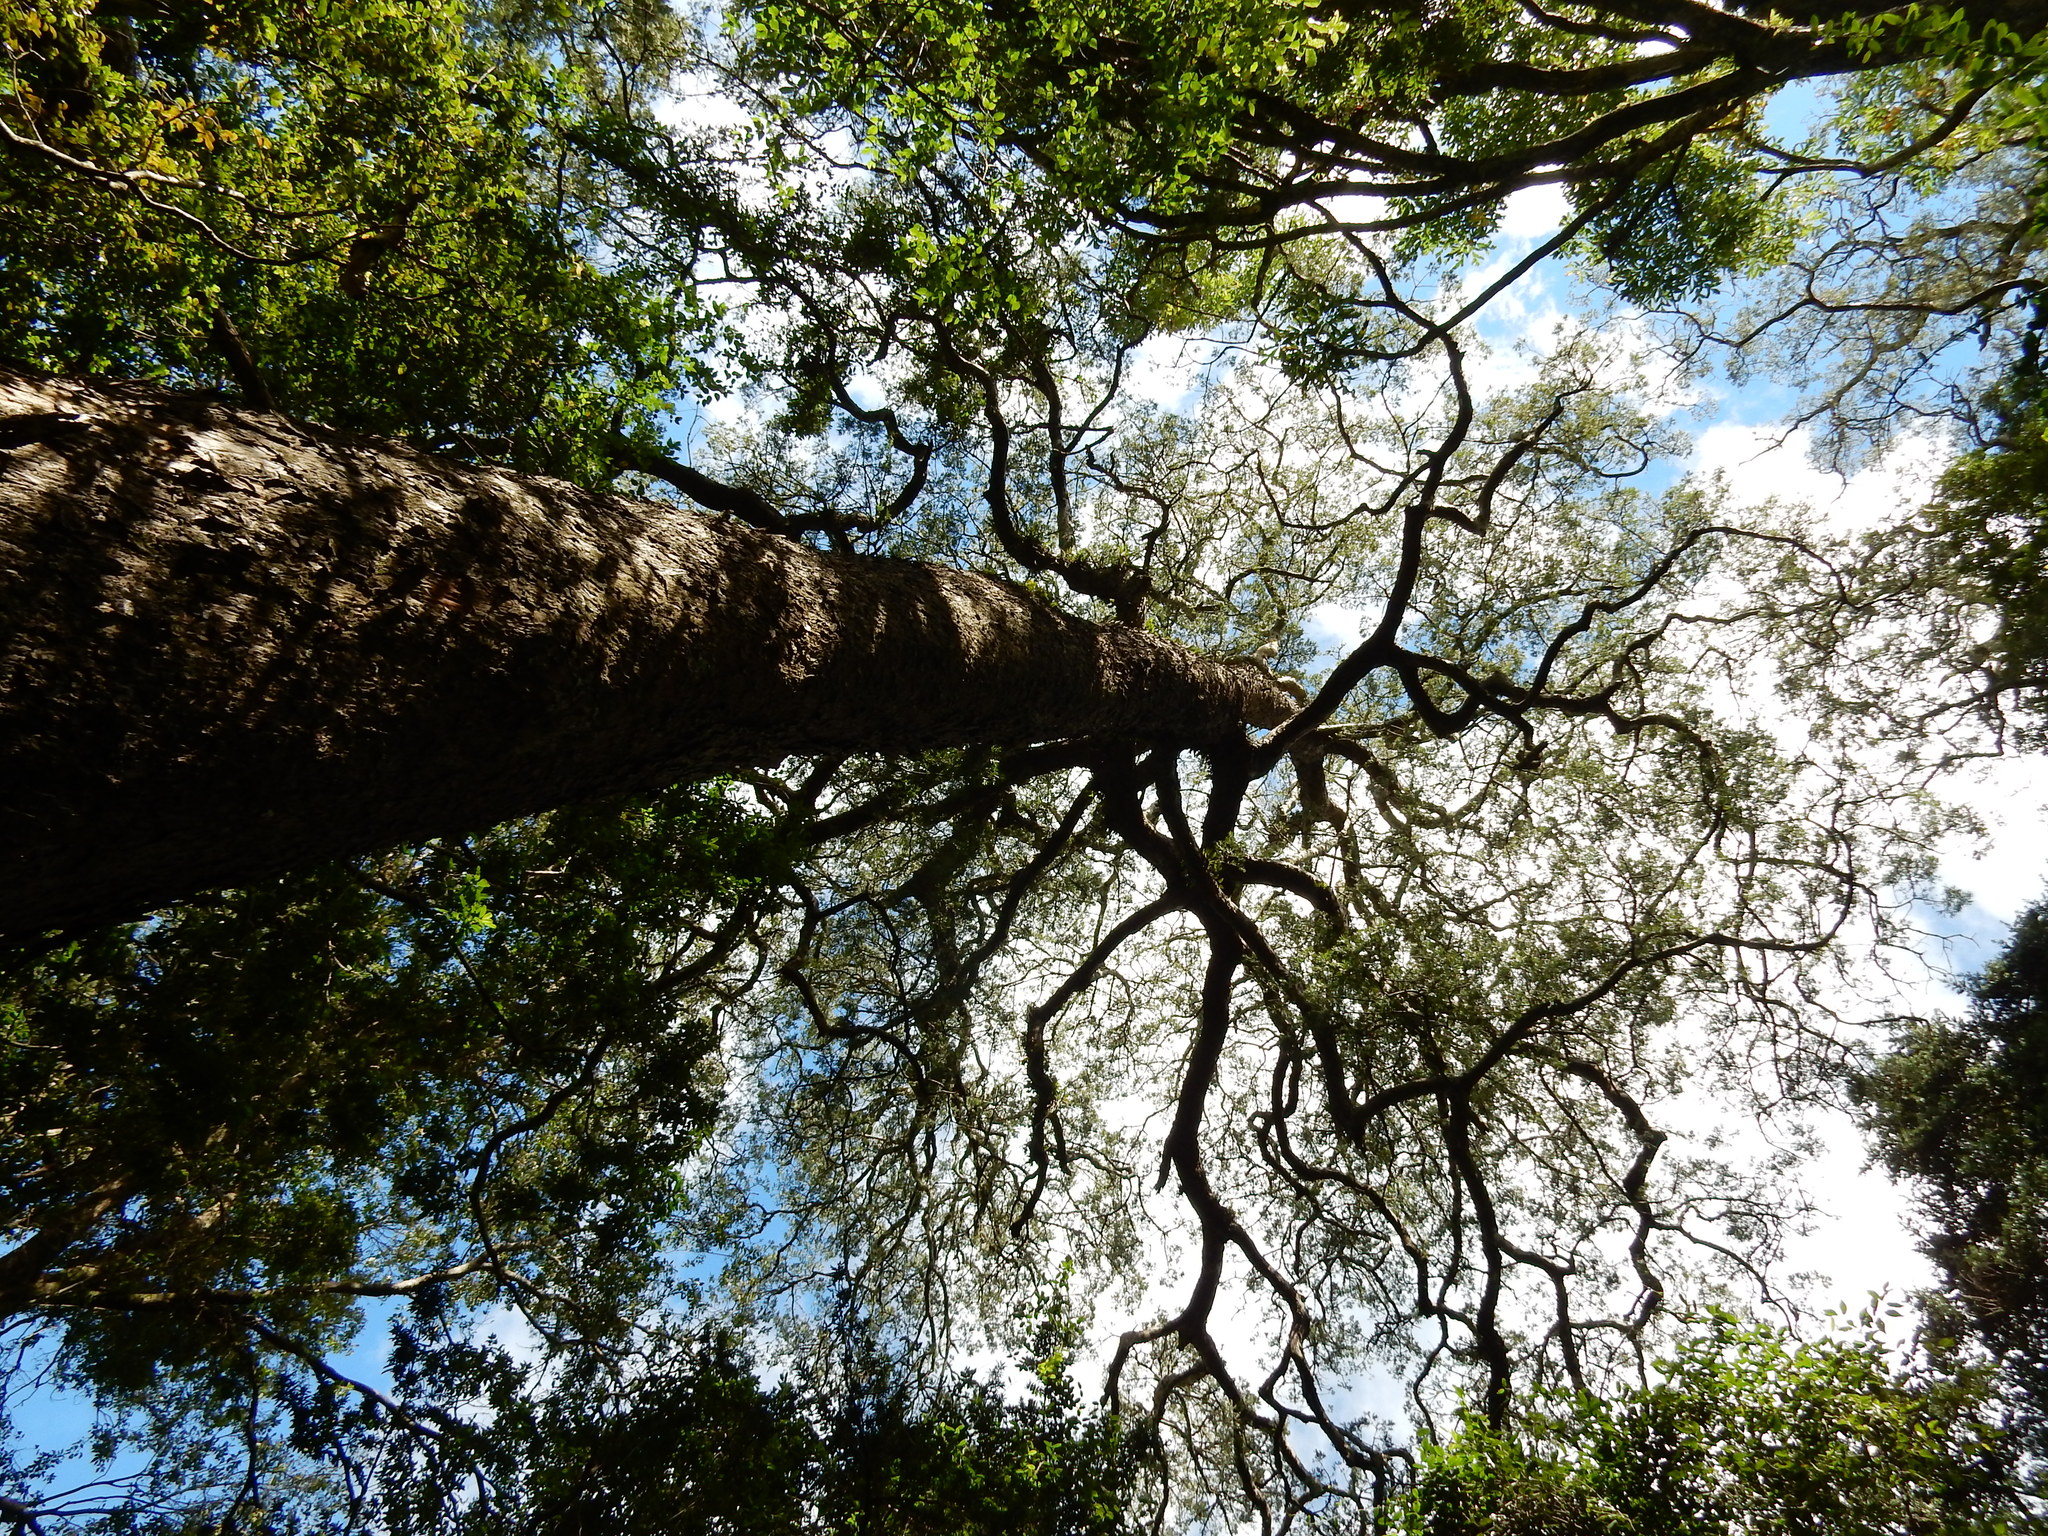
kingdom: Plantae
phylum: Tracheophyta
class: Pinopsida
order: Pinales
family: Podocarpaceae
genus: Afrocarpus
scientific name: Afrocarpus falcatus
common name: Bastard yellowwood
